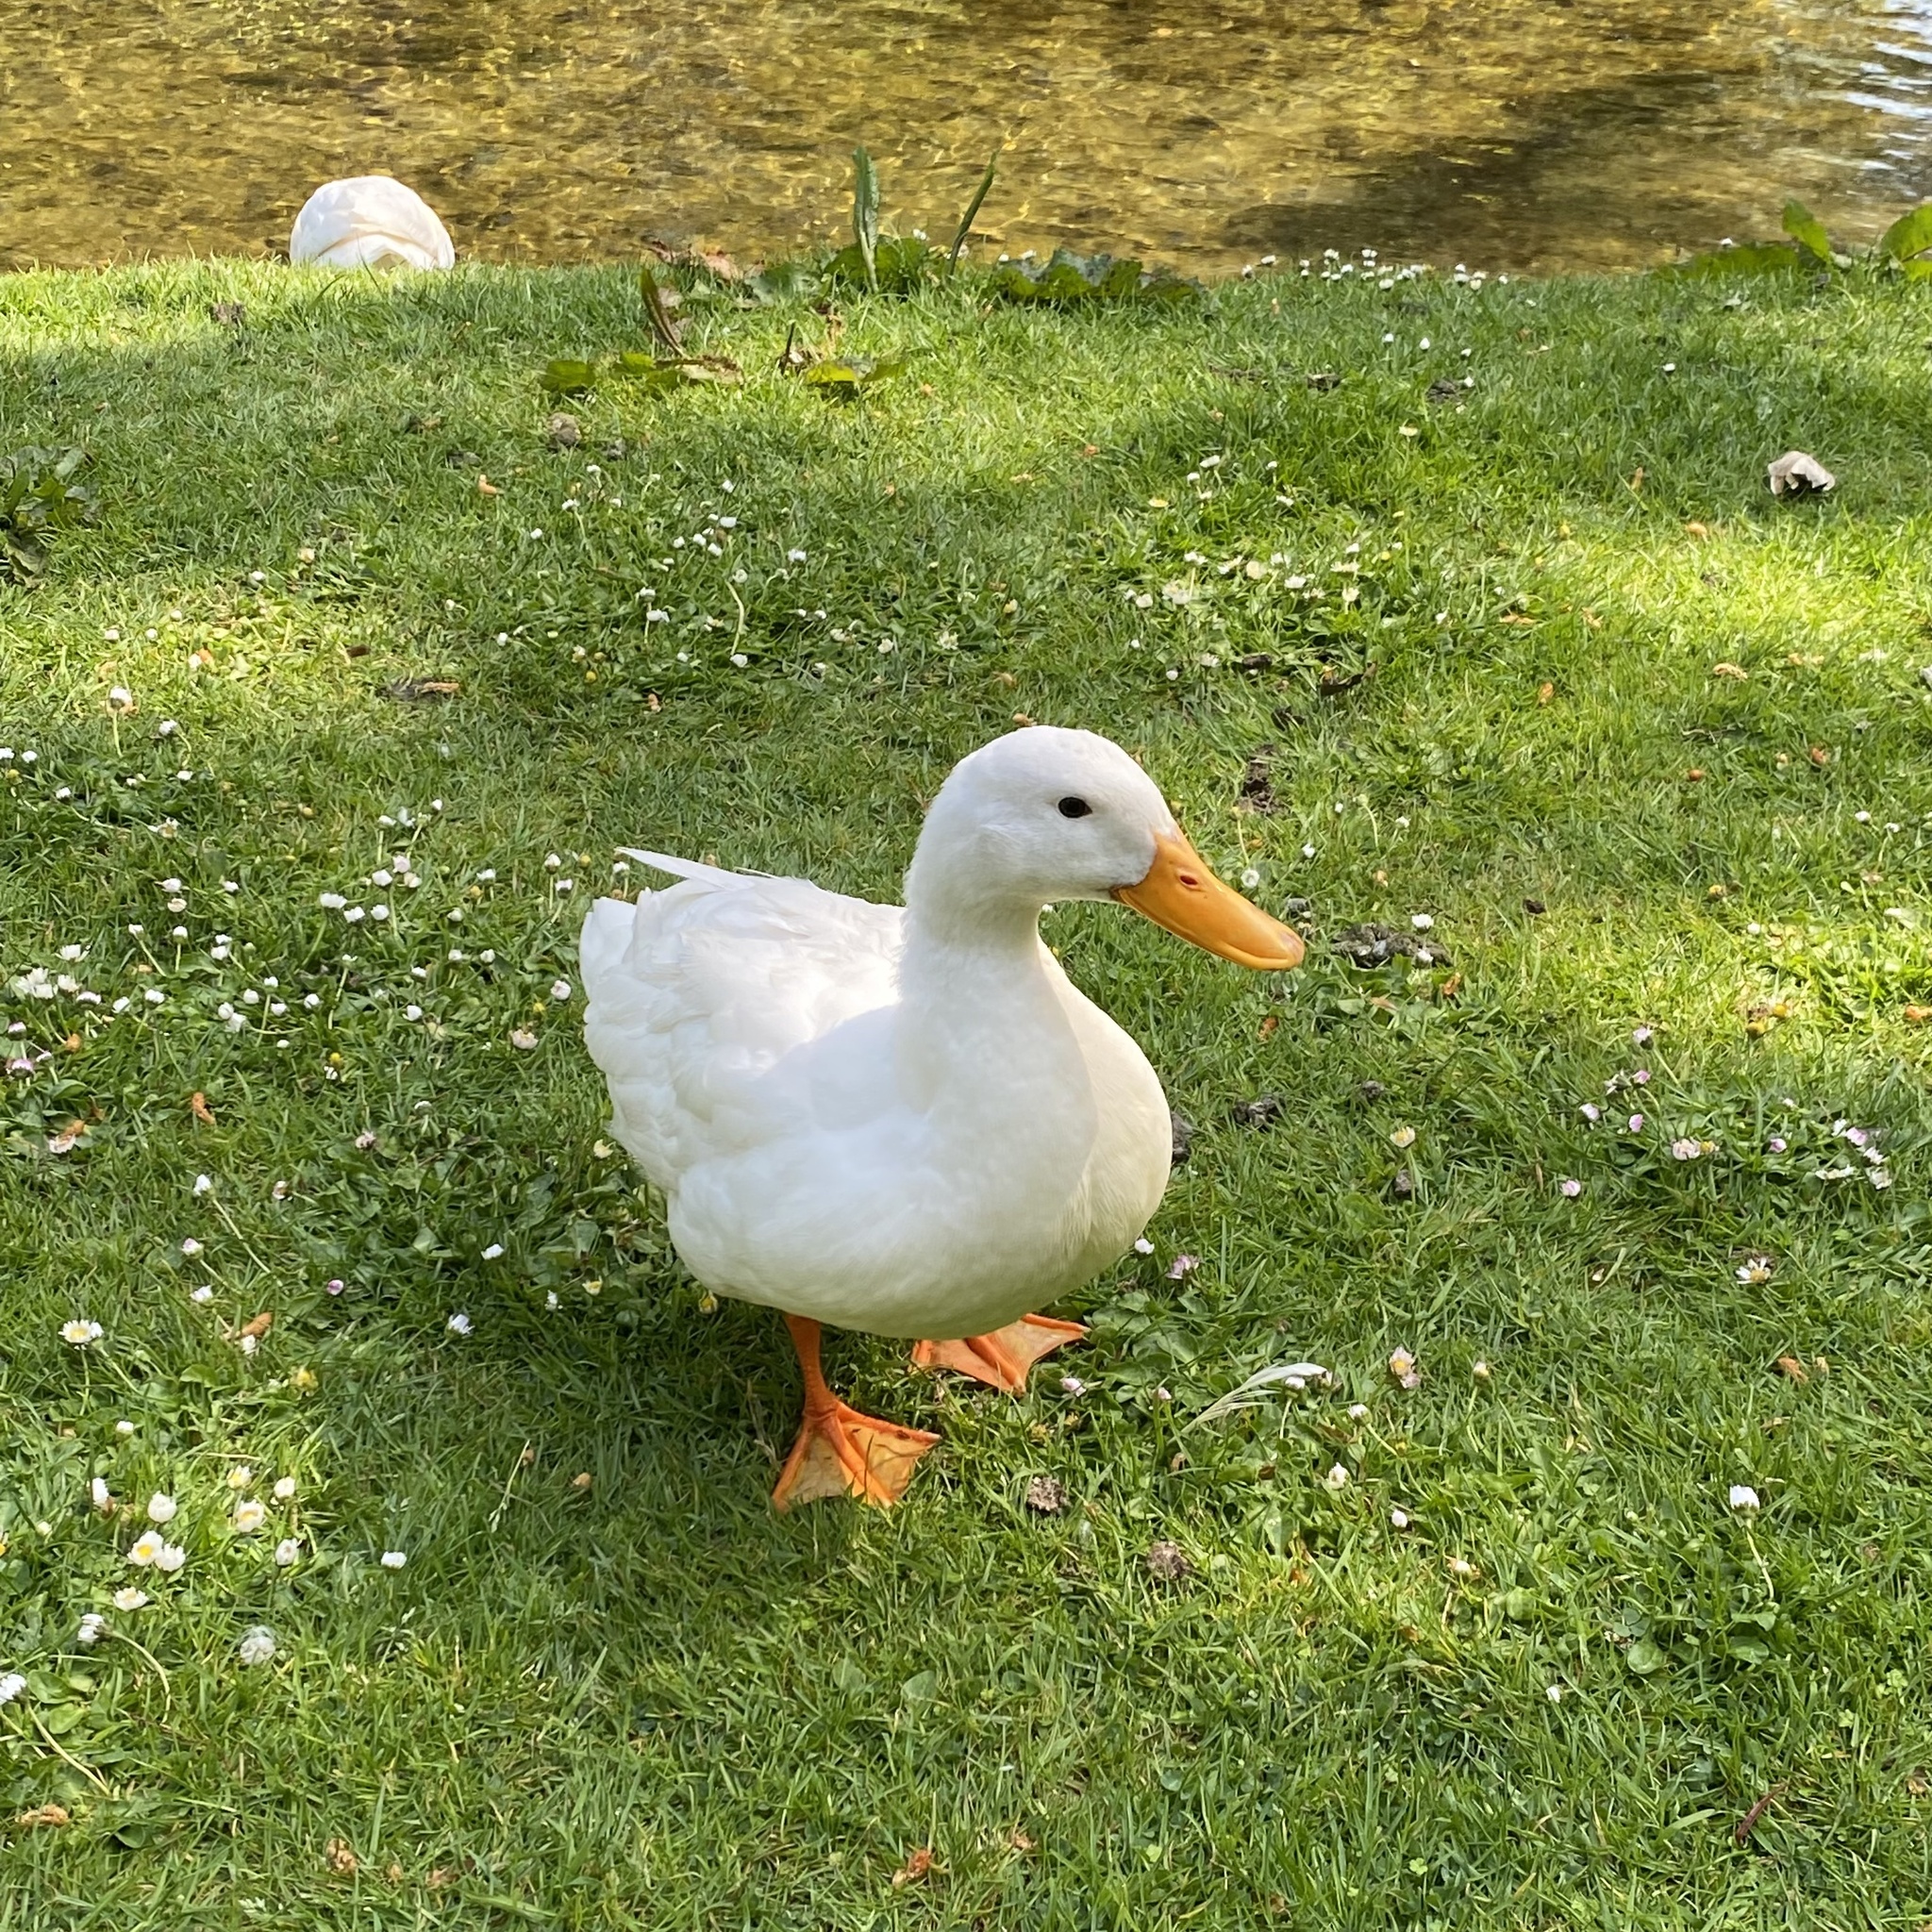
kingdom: Animalia
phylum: Chordata
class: Aves
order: Anseriformes
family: Anatidae
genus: Anas
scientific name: Anas platyrhynchos
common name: Mallard
